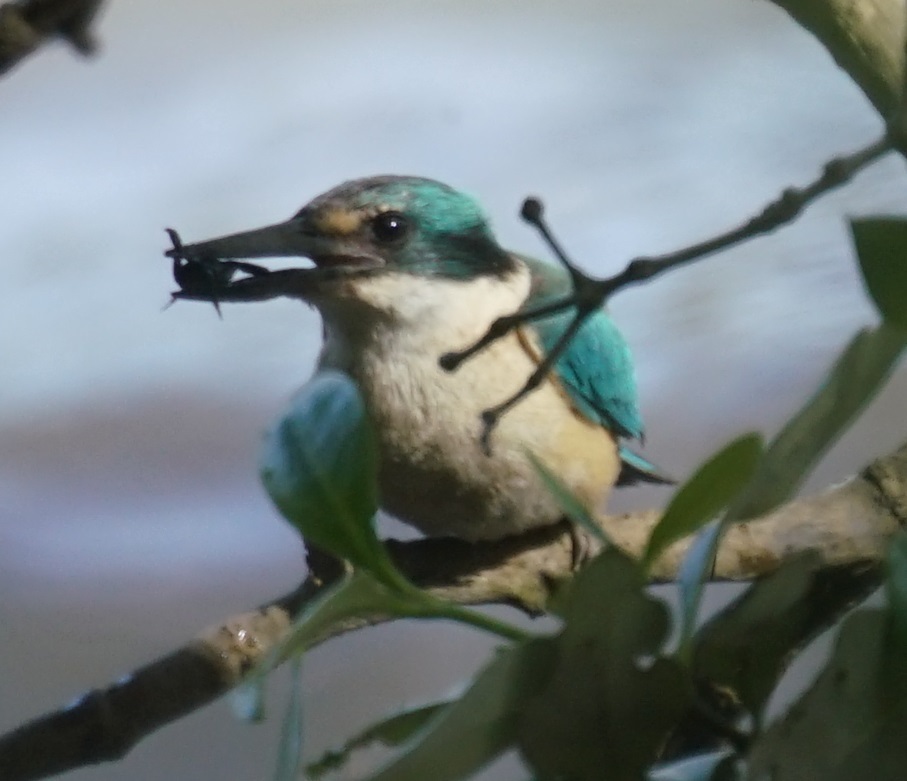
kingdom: Animalia
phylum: Chordata
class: Aves
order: Coraciiformes
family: Alcedinidae
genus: Todiramphus
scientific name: Todiramphus sanctus
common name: Sacred kingfisher
